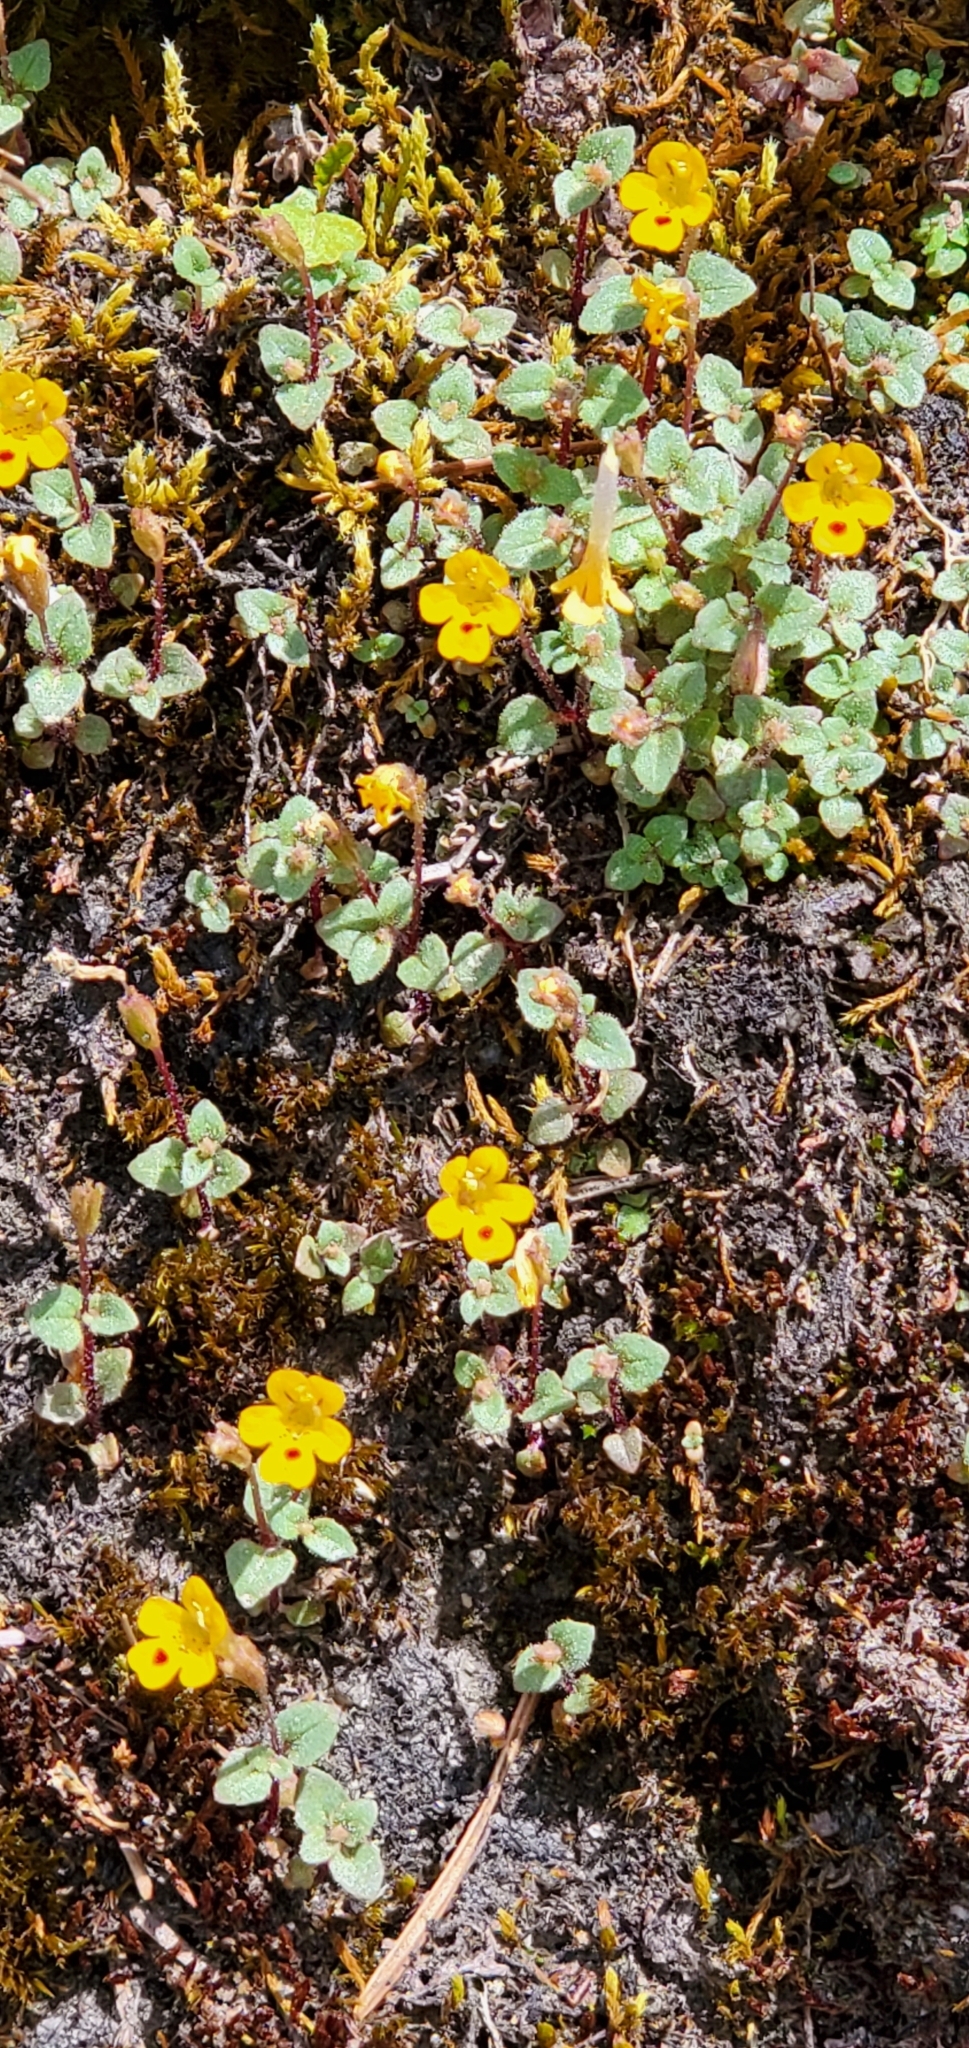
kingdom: Plantae
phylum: Tracheophyta
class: Magnoliopsida
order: Lamiales
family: Phrymaceae
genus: Erythranthe
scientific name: Erythranthe alsinoides
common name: Chickweed monkeyflower
